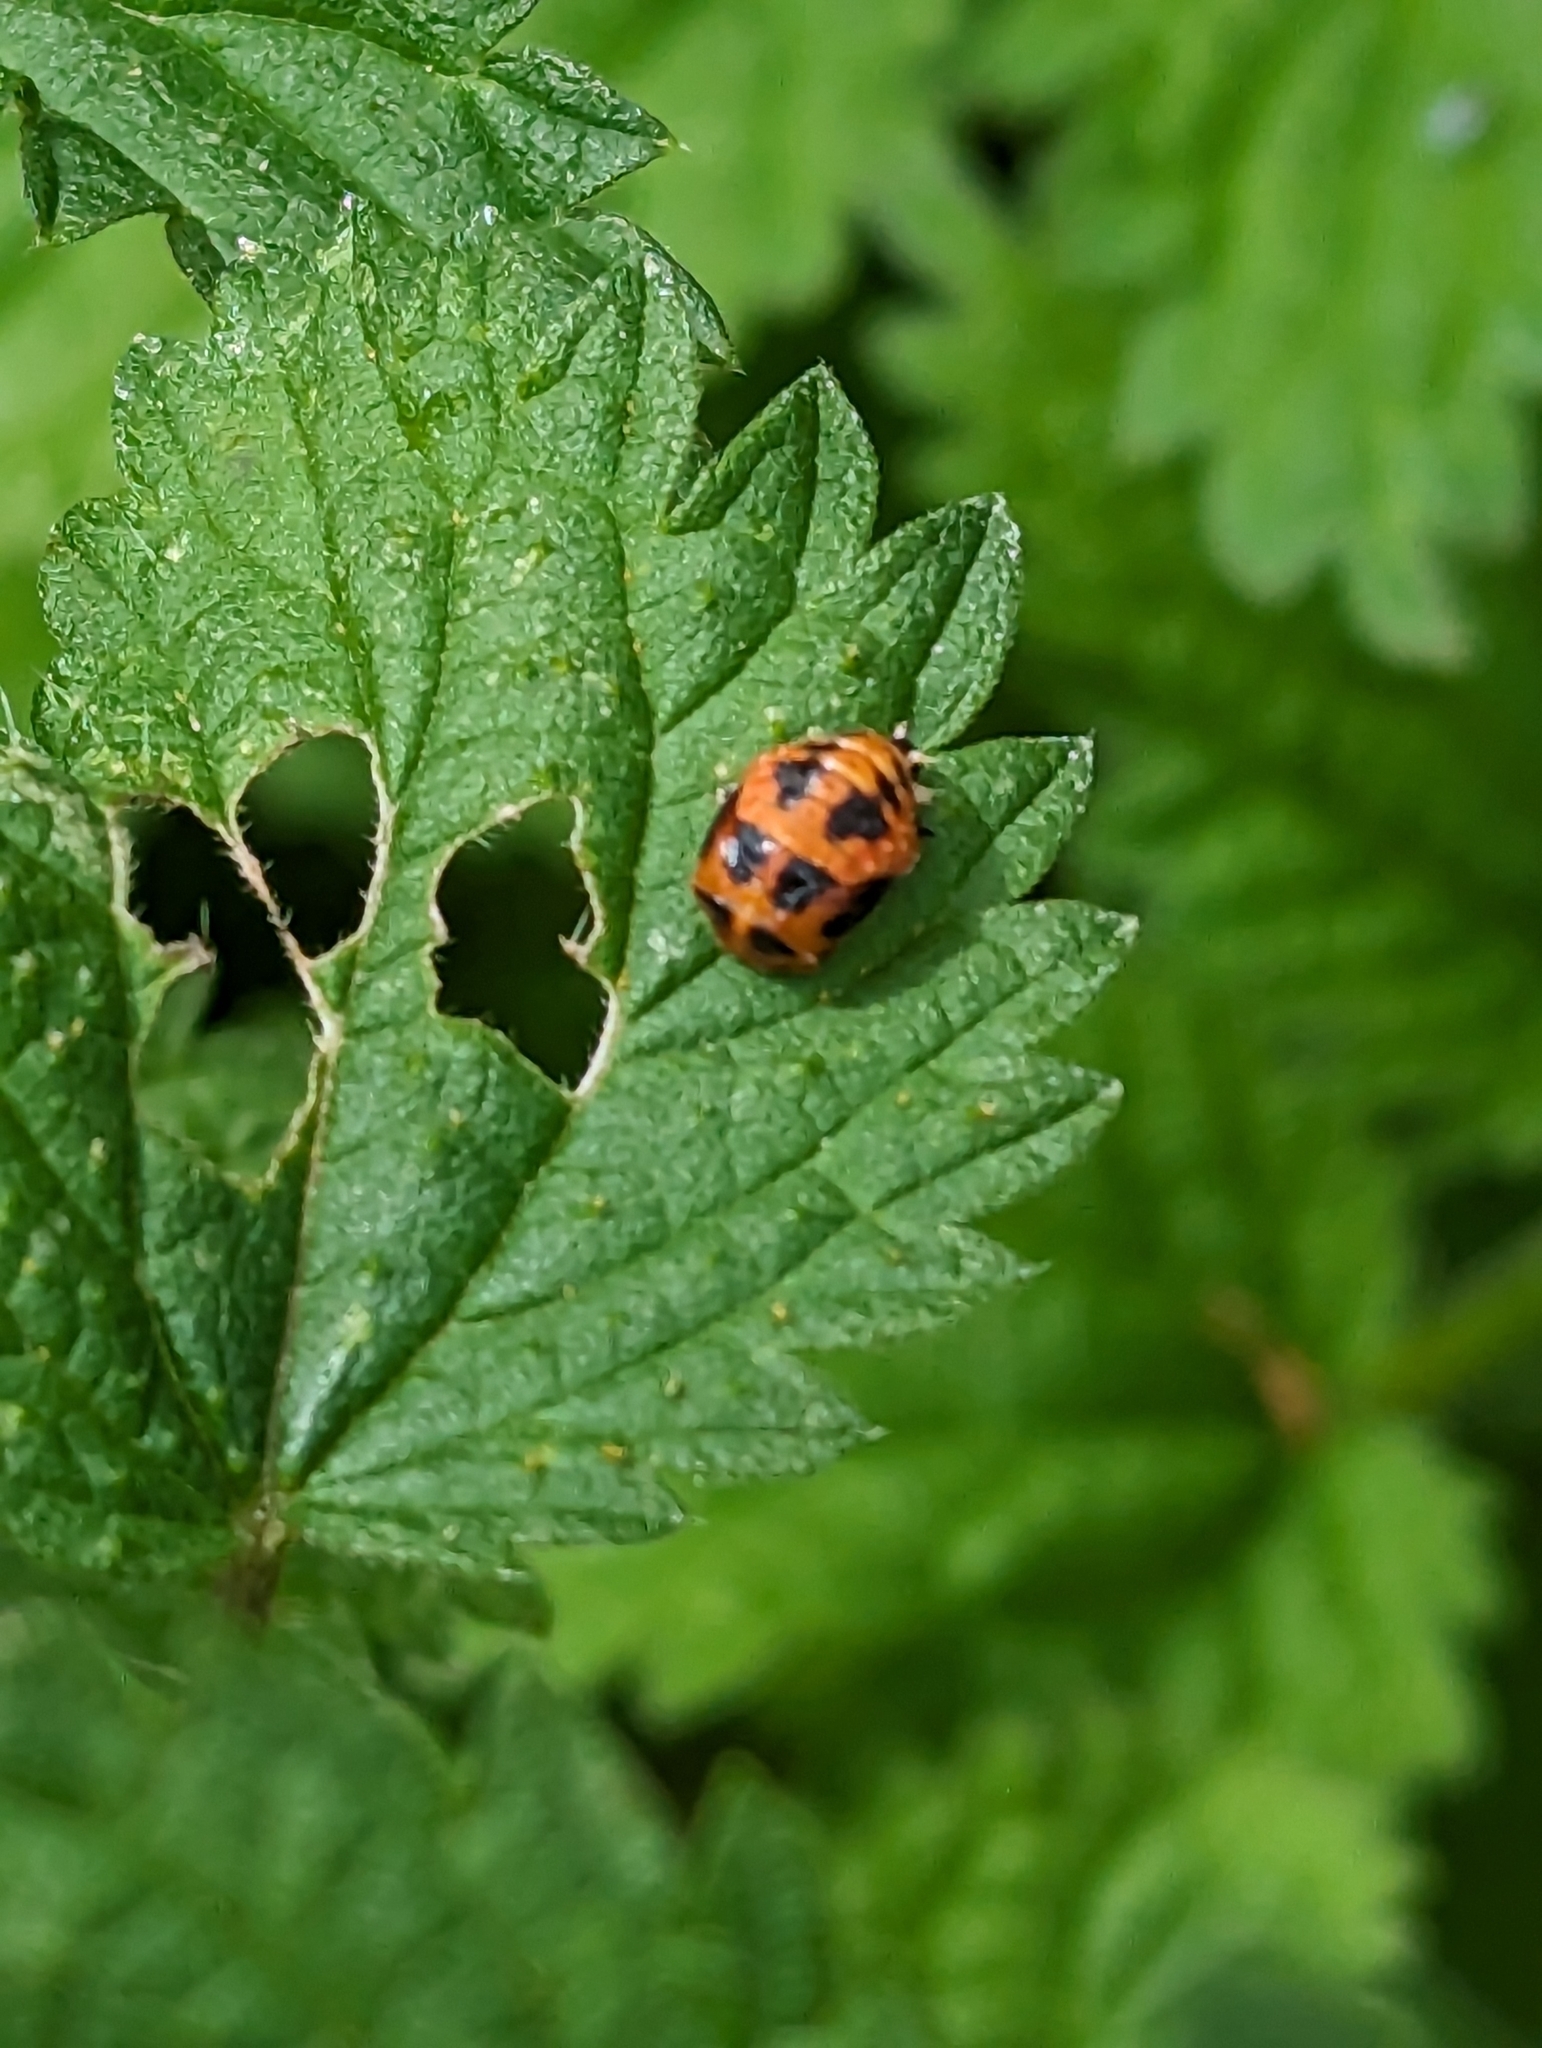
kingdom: Animalia
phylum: Arthropoda
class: Insecta
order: Coleoptera
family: Coccinellidae
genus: Harmonia
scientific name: Harmonia axyridis
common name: Harlequin ladybird
